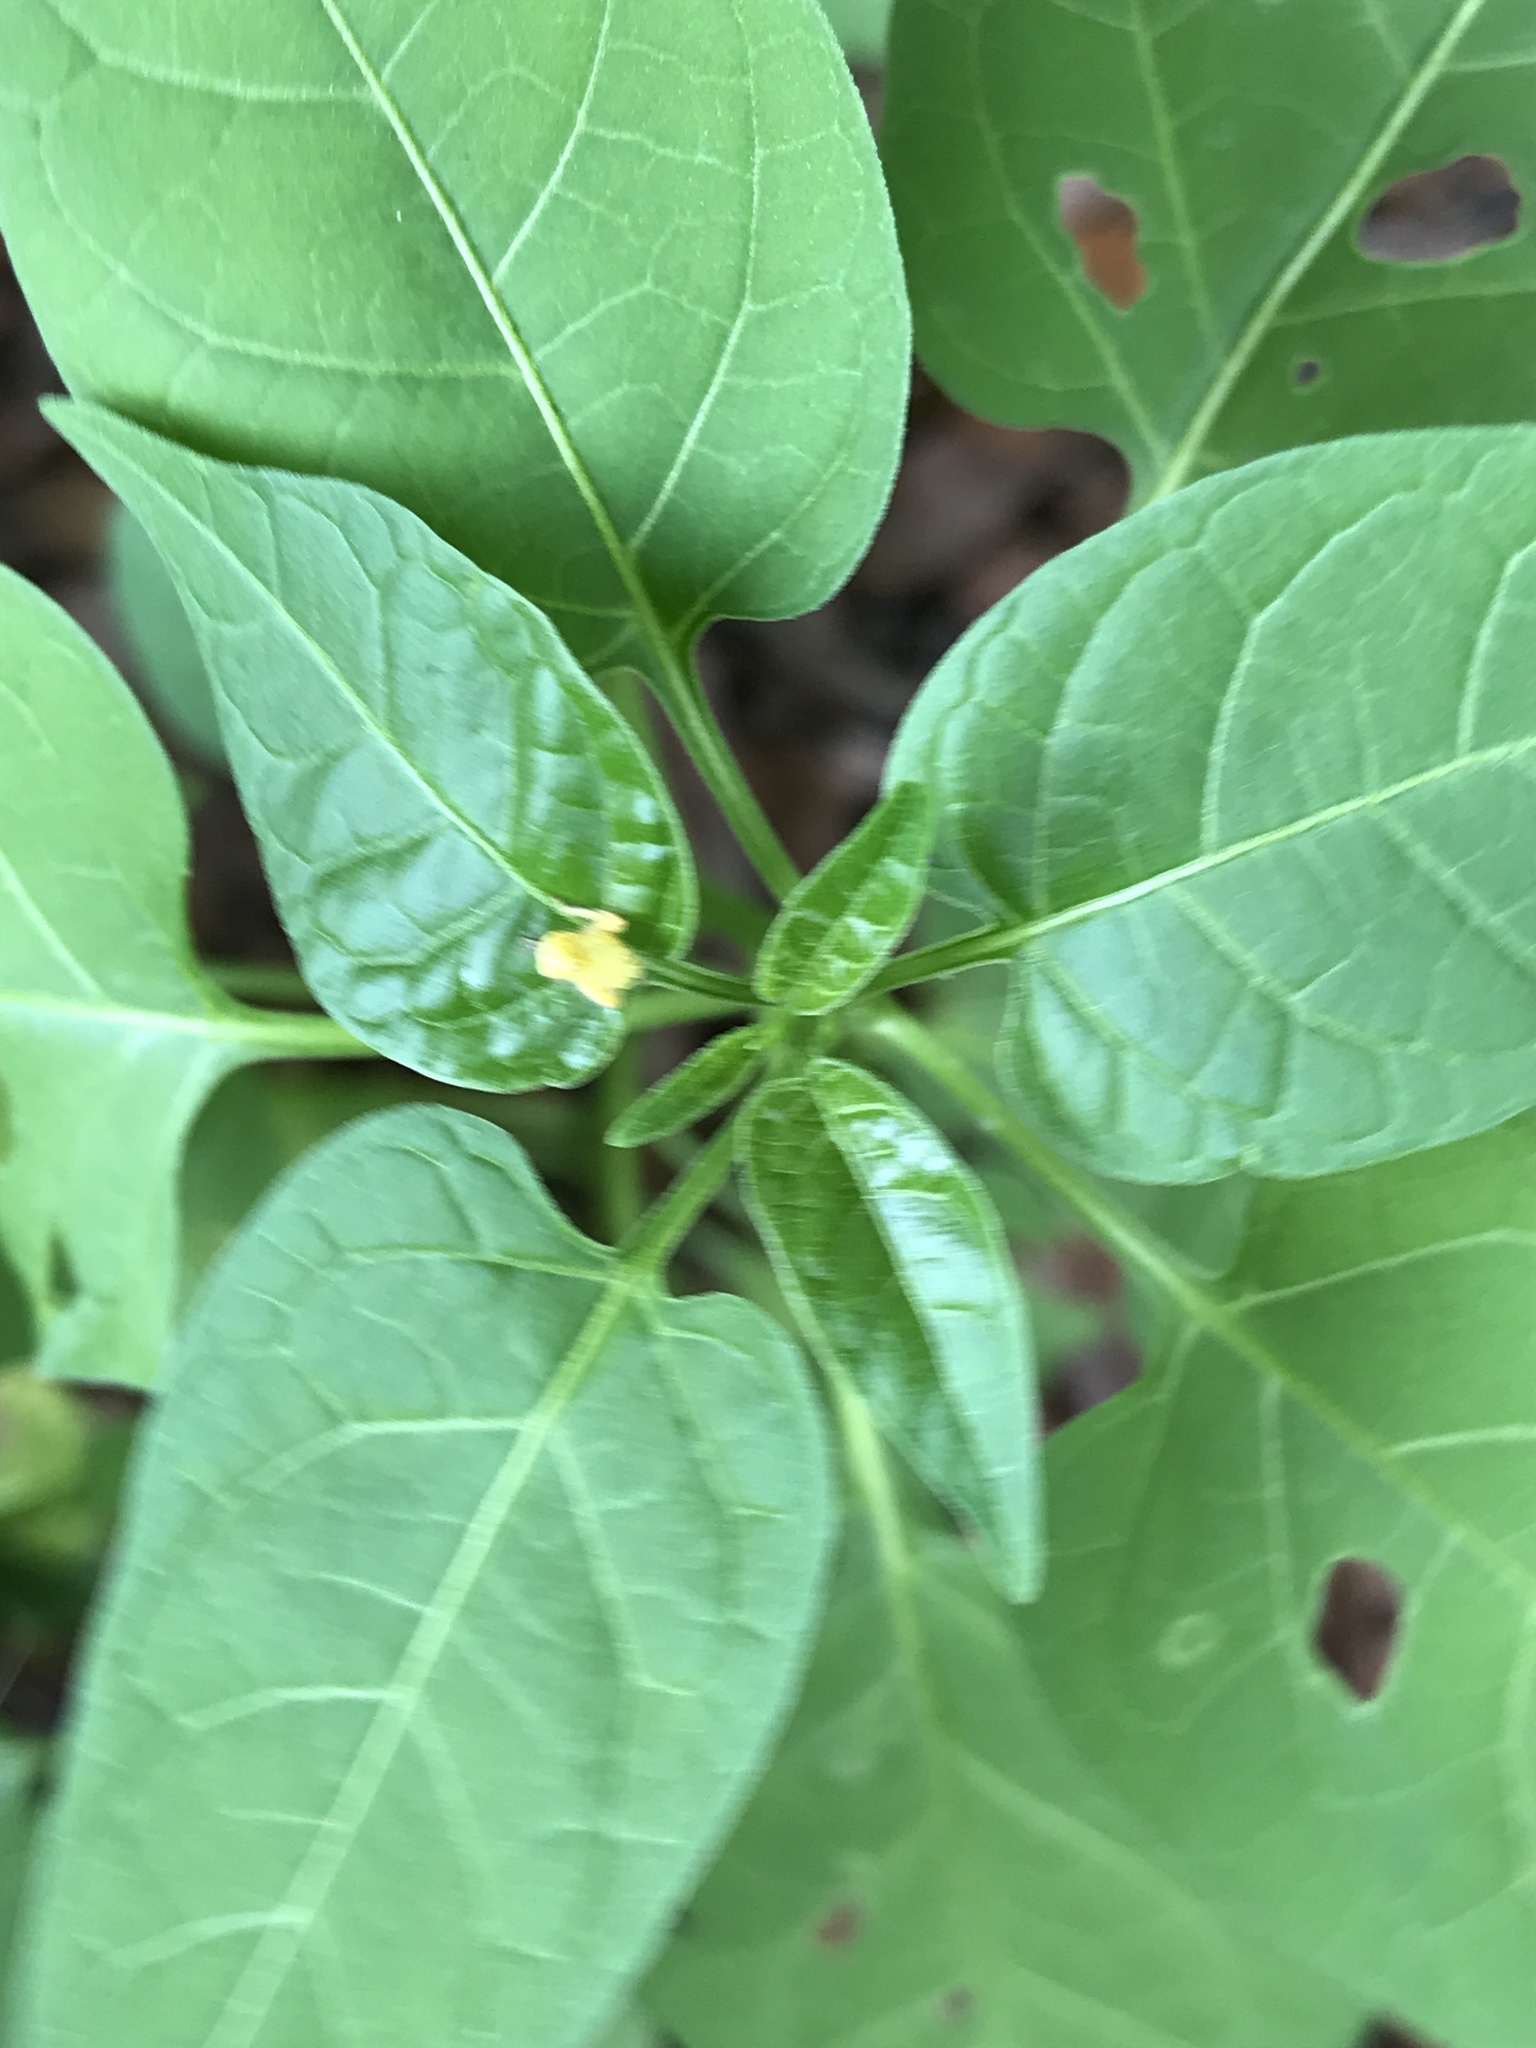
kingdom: Plantae
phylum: Tracheophyta
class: Magnoliopsida
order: Solanales
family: Solanaceae
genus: Solanum
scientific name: Solanum dulcamara
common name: Climbing nightshade
